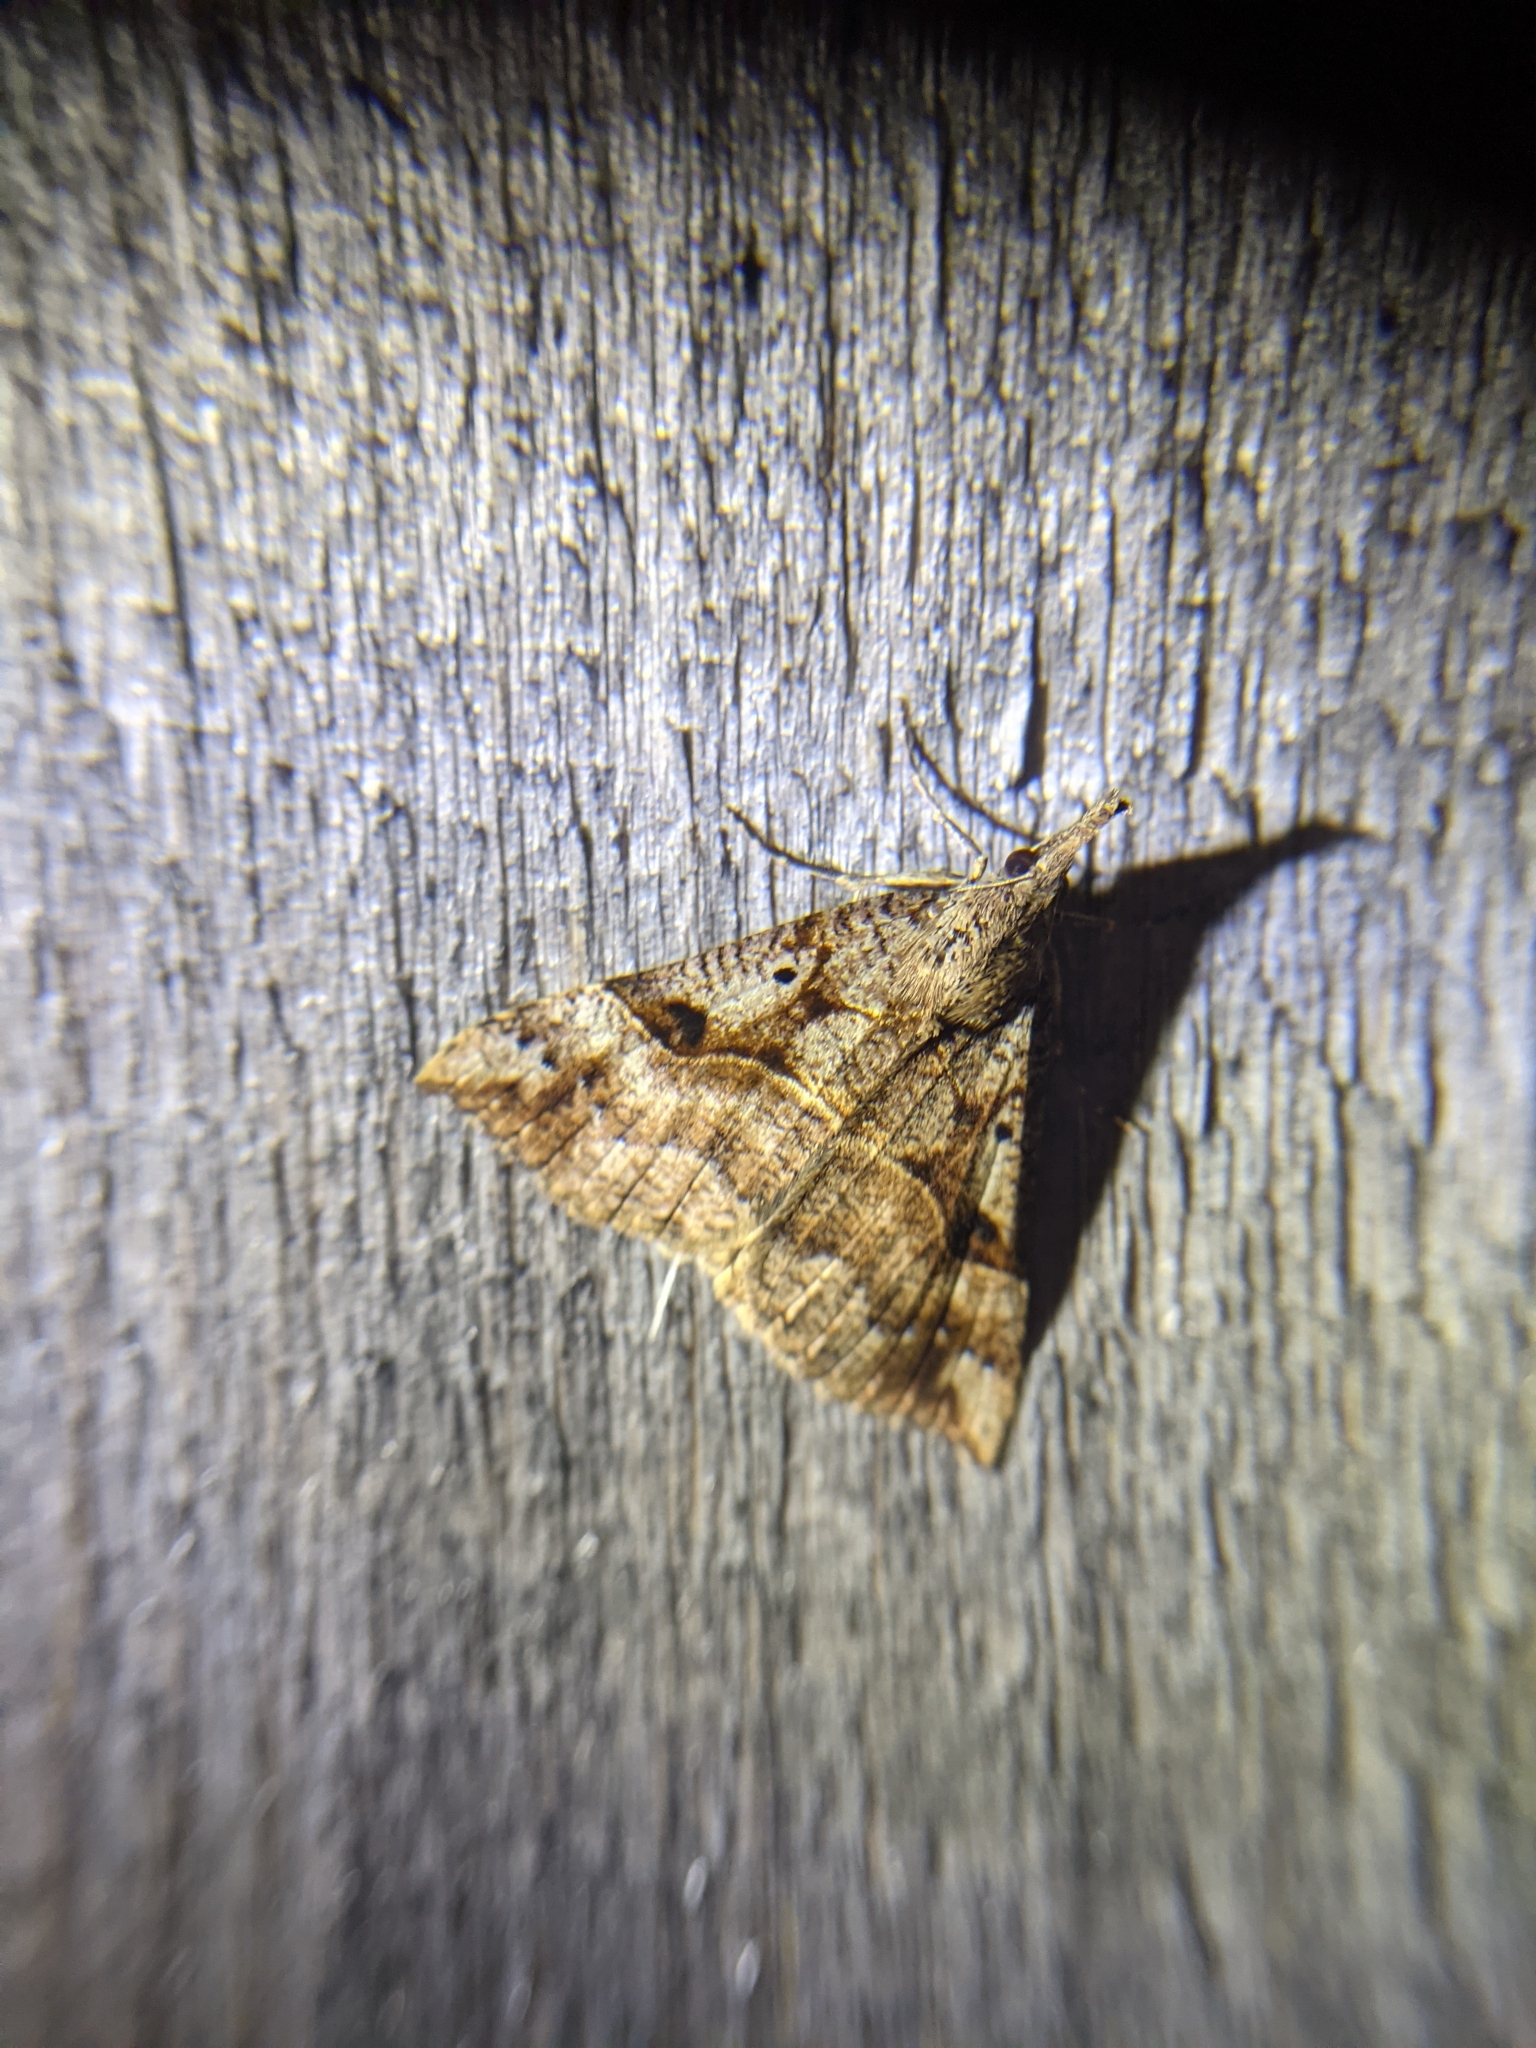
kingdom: Animalia
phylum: Arthropoda
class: Insecta
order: Lepidoptera
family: Erebidae
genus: Hypena
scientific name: Hypena edictalis
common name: Large snout
